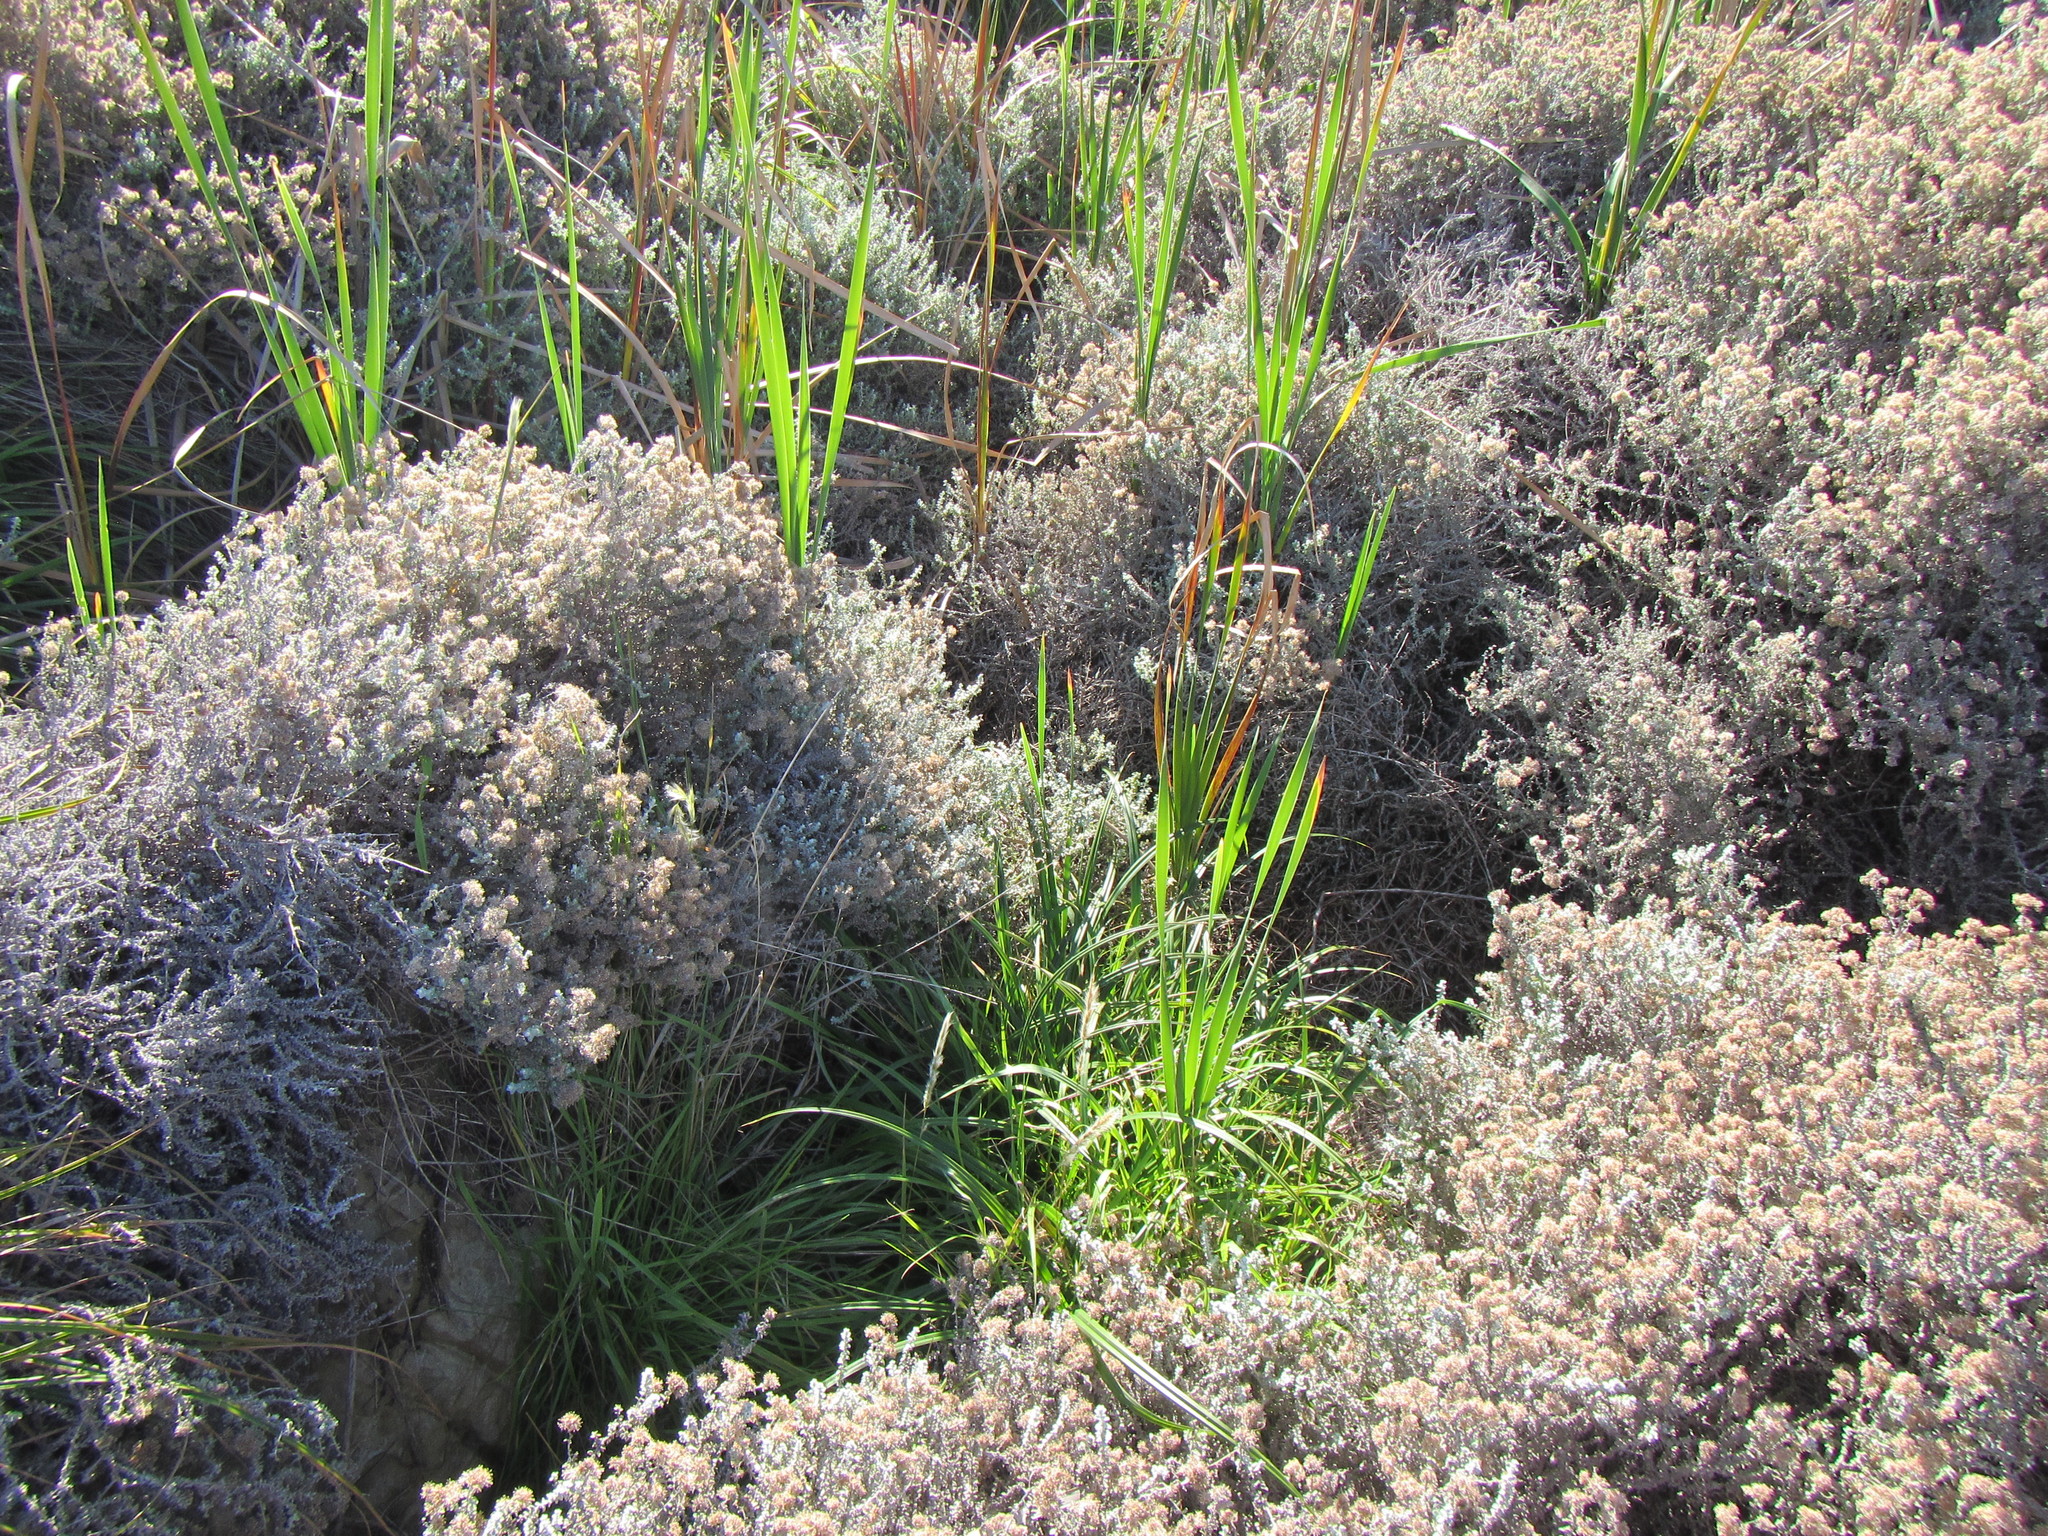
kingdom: Plantae
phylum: Tracheophyta
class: Liliopsida
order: Poales
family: Poaceae
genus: Polypogon
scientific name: Polypogon monspeliensis
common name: Annual rabbitsfoot grass
